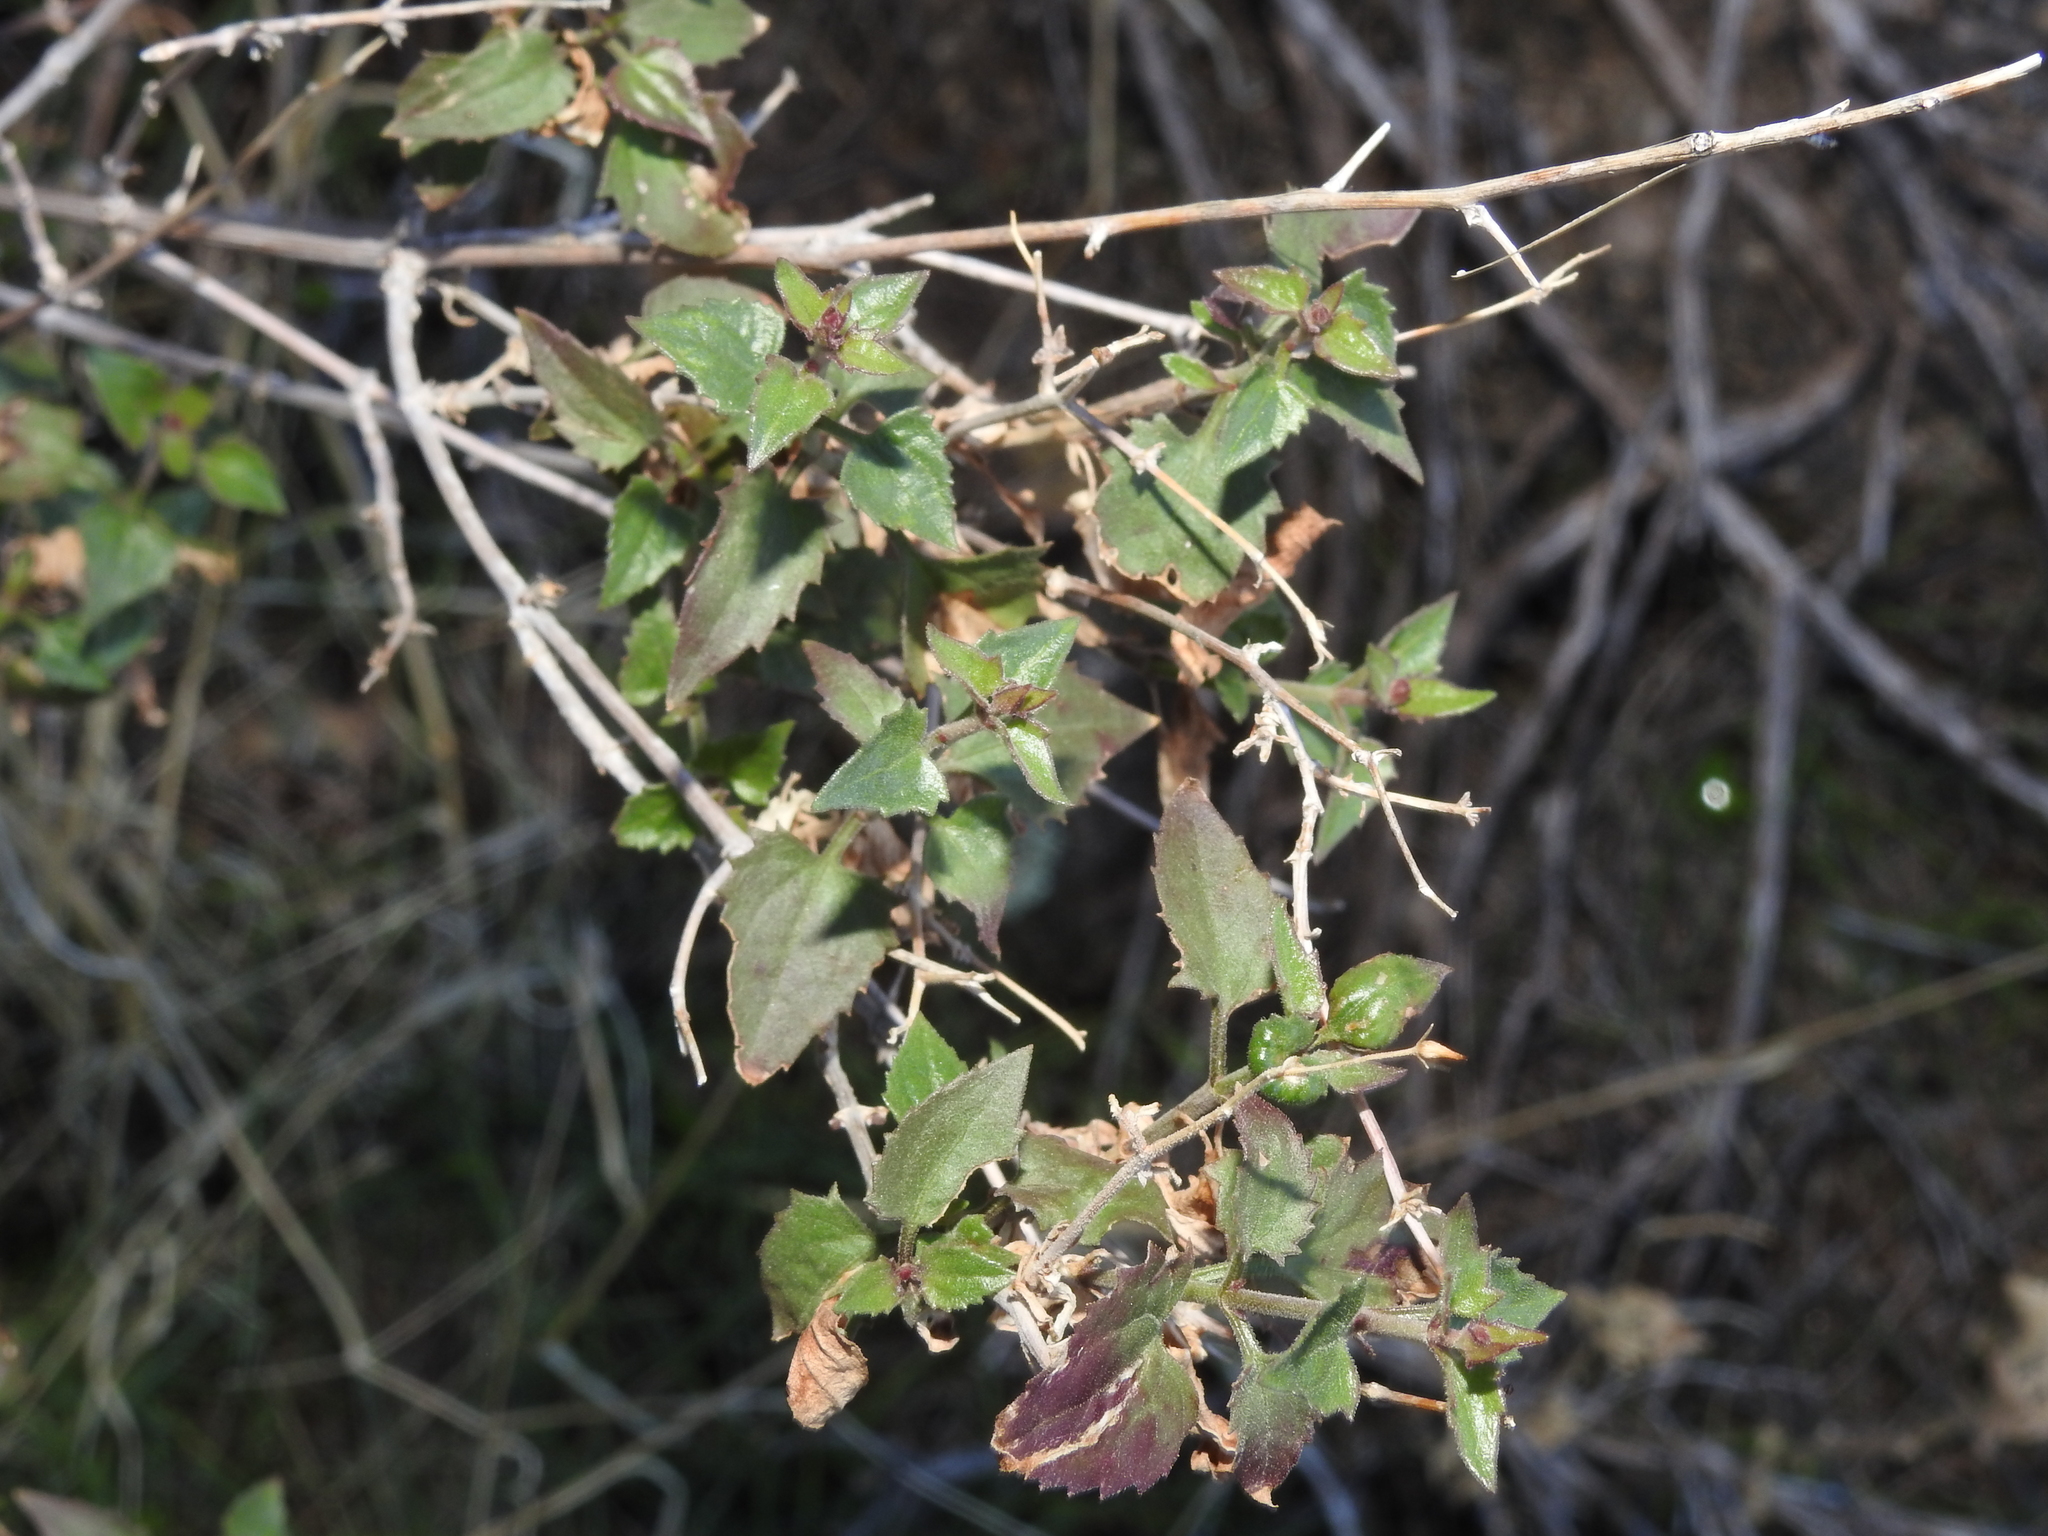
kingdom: Plantae
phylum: Tracheophyta
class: Magnoliopsida
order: Asterales
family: Asteraceae
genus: Brickellia
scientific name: Brickellia coulteri
